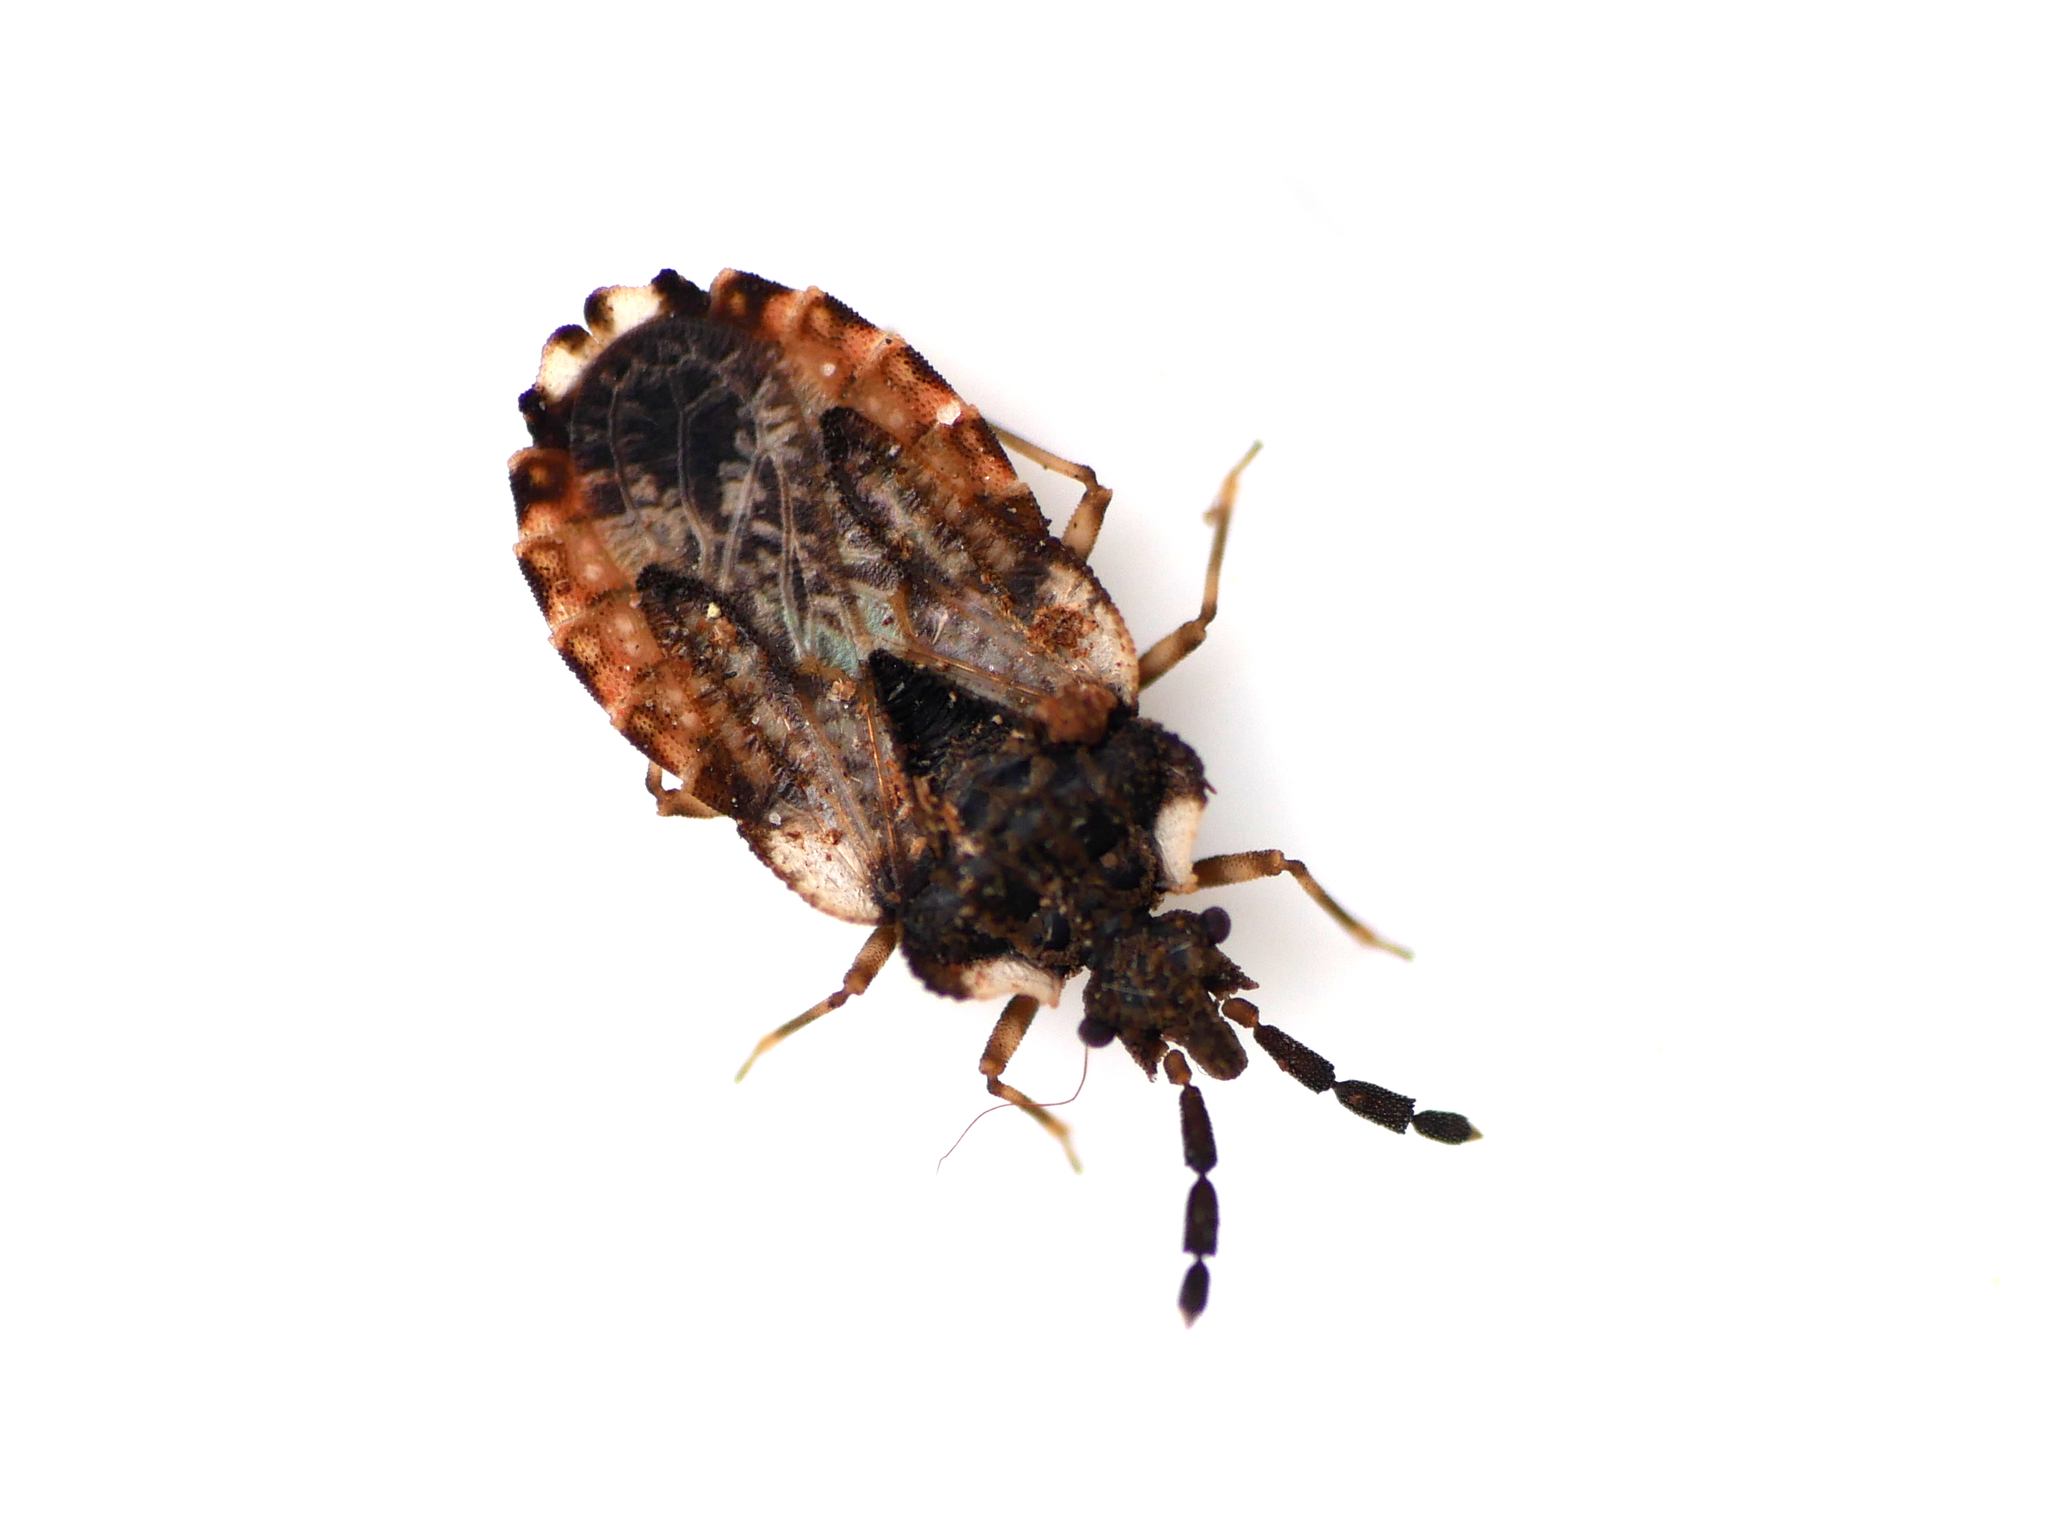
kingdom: Animalia
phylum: Arthropoda
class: Insecta
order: Hemiptera
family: Aradidae
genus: Aradus
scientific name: Aradus depressus
